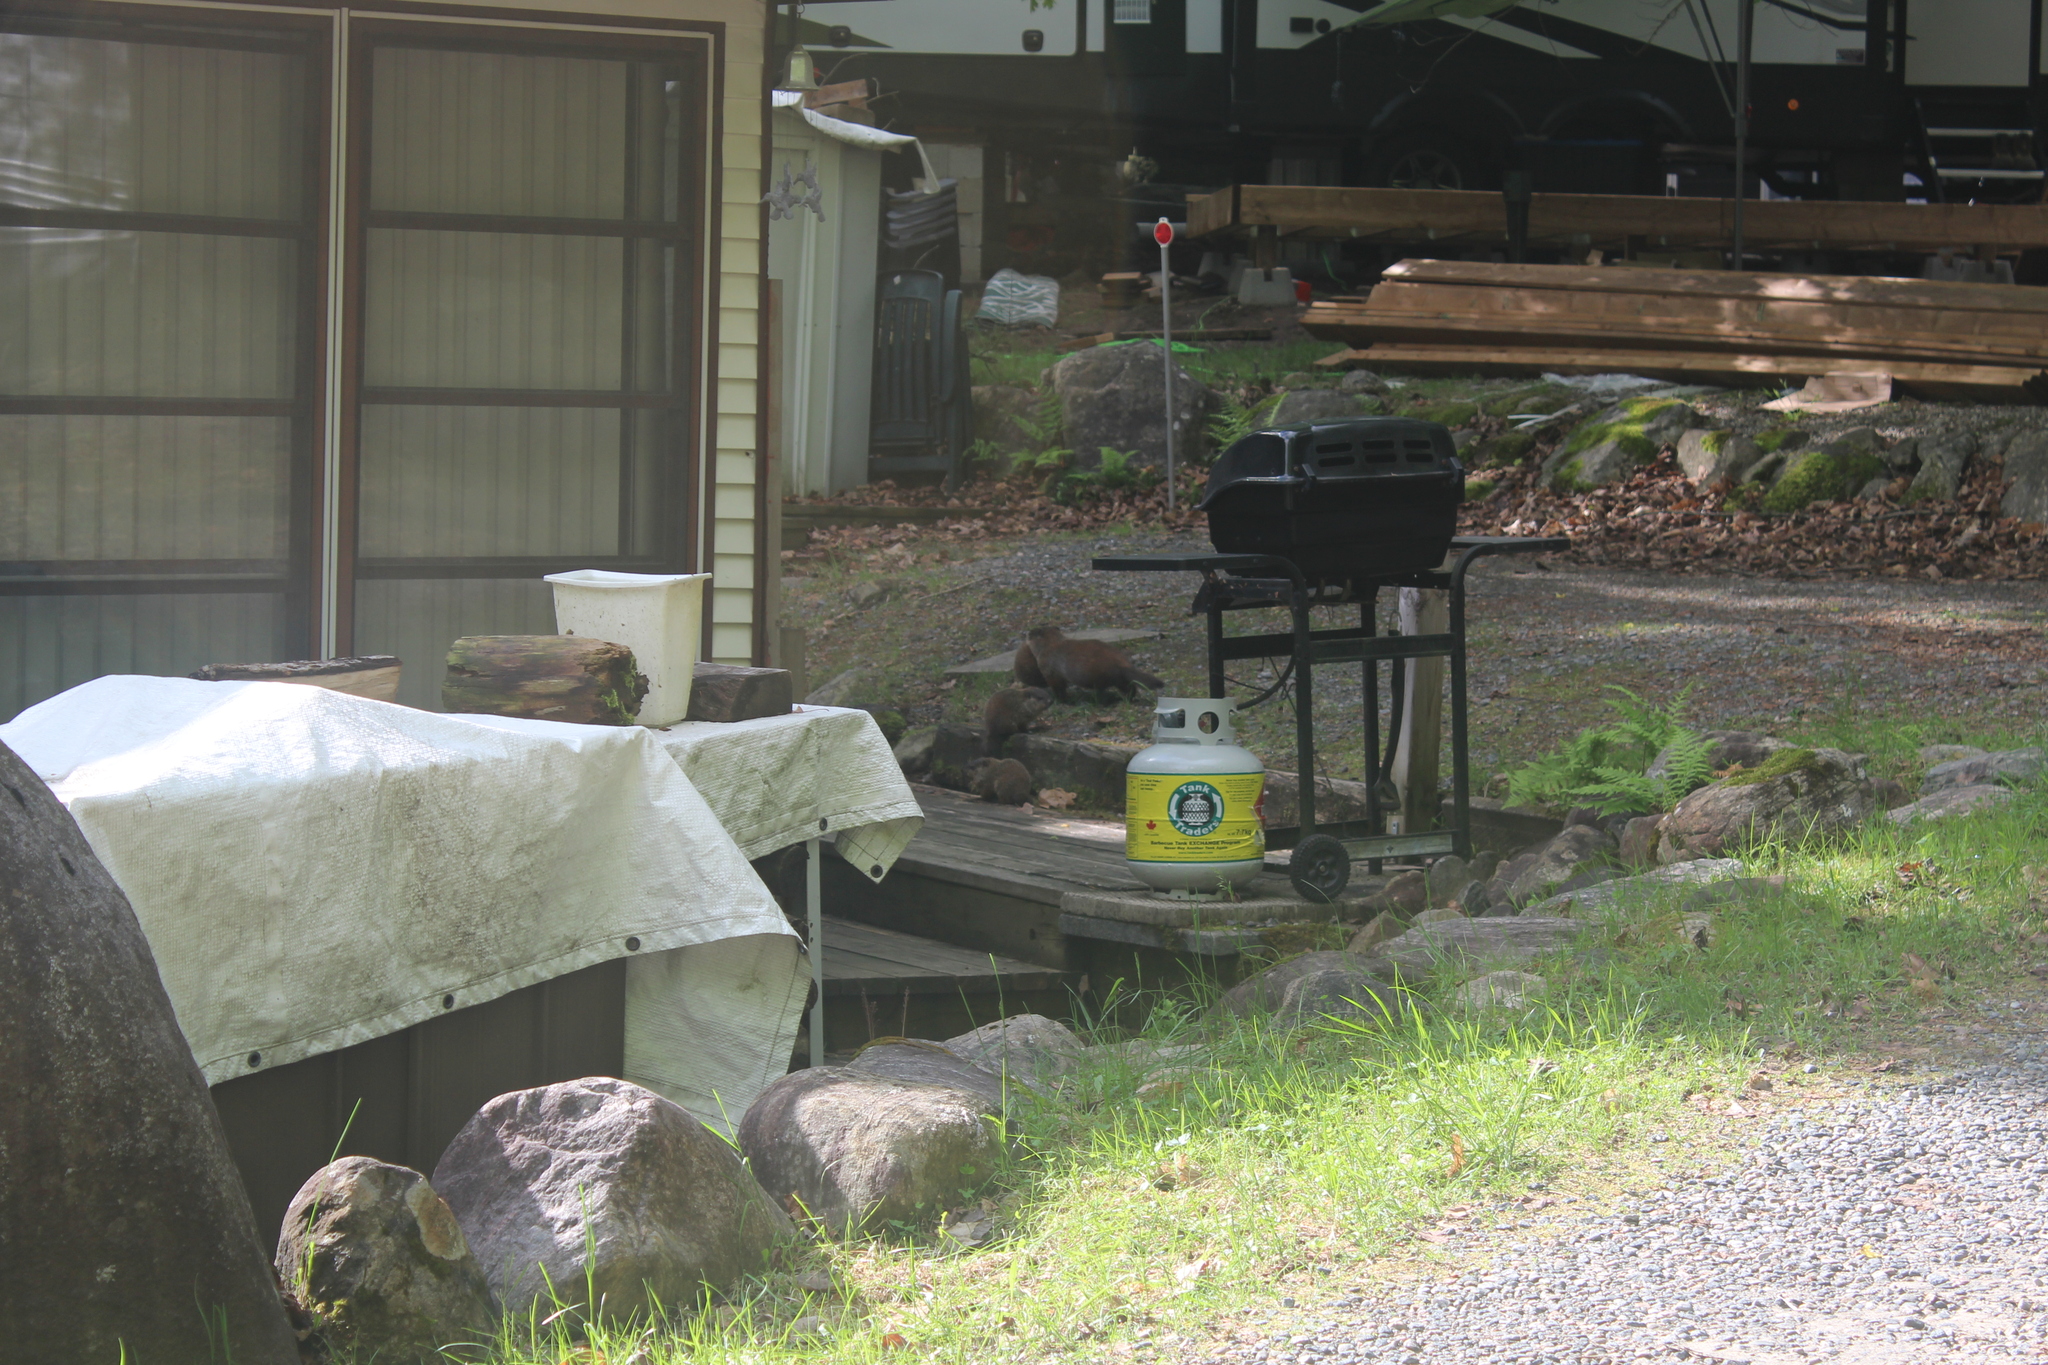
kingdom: Animalia
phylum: Chordata
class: Mammalia
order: Rodentia
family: Sciuridae
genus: Marmota
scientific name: Marmota monax
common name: Groundhog
